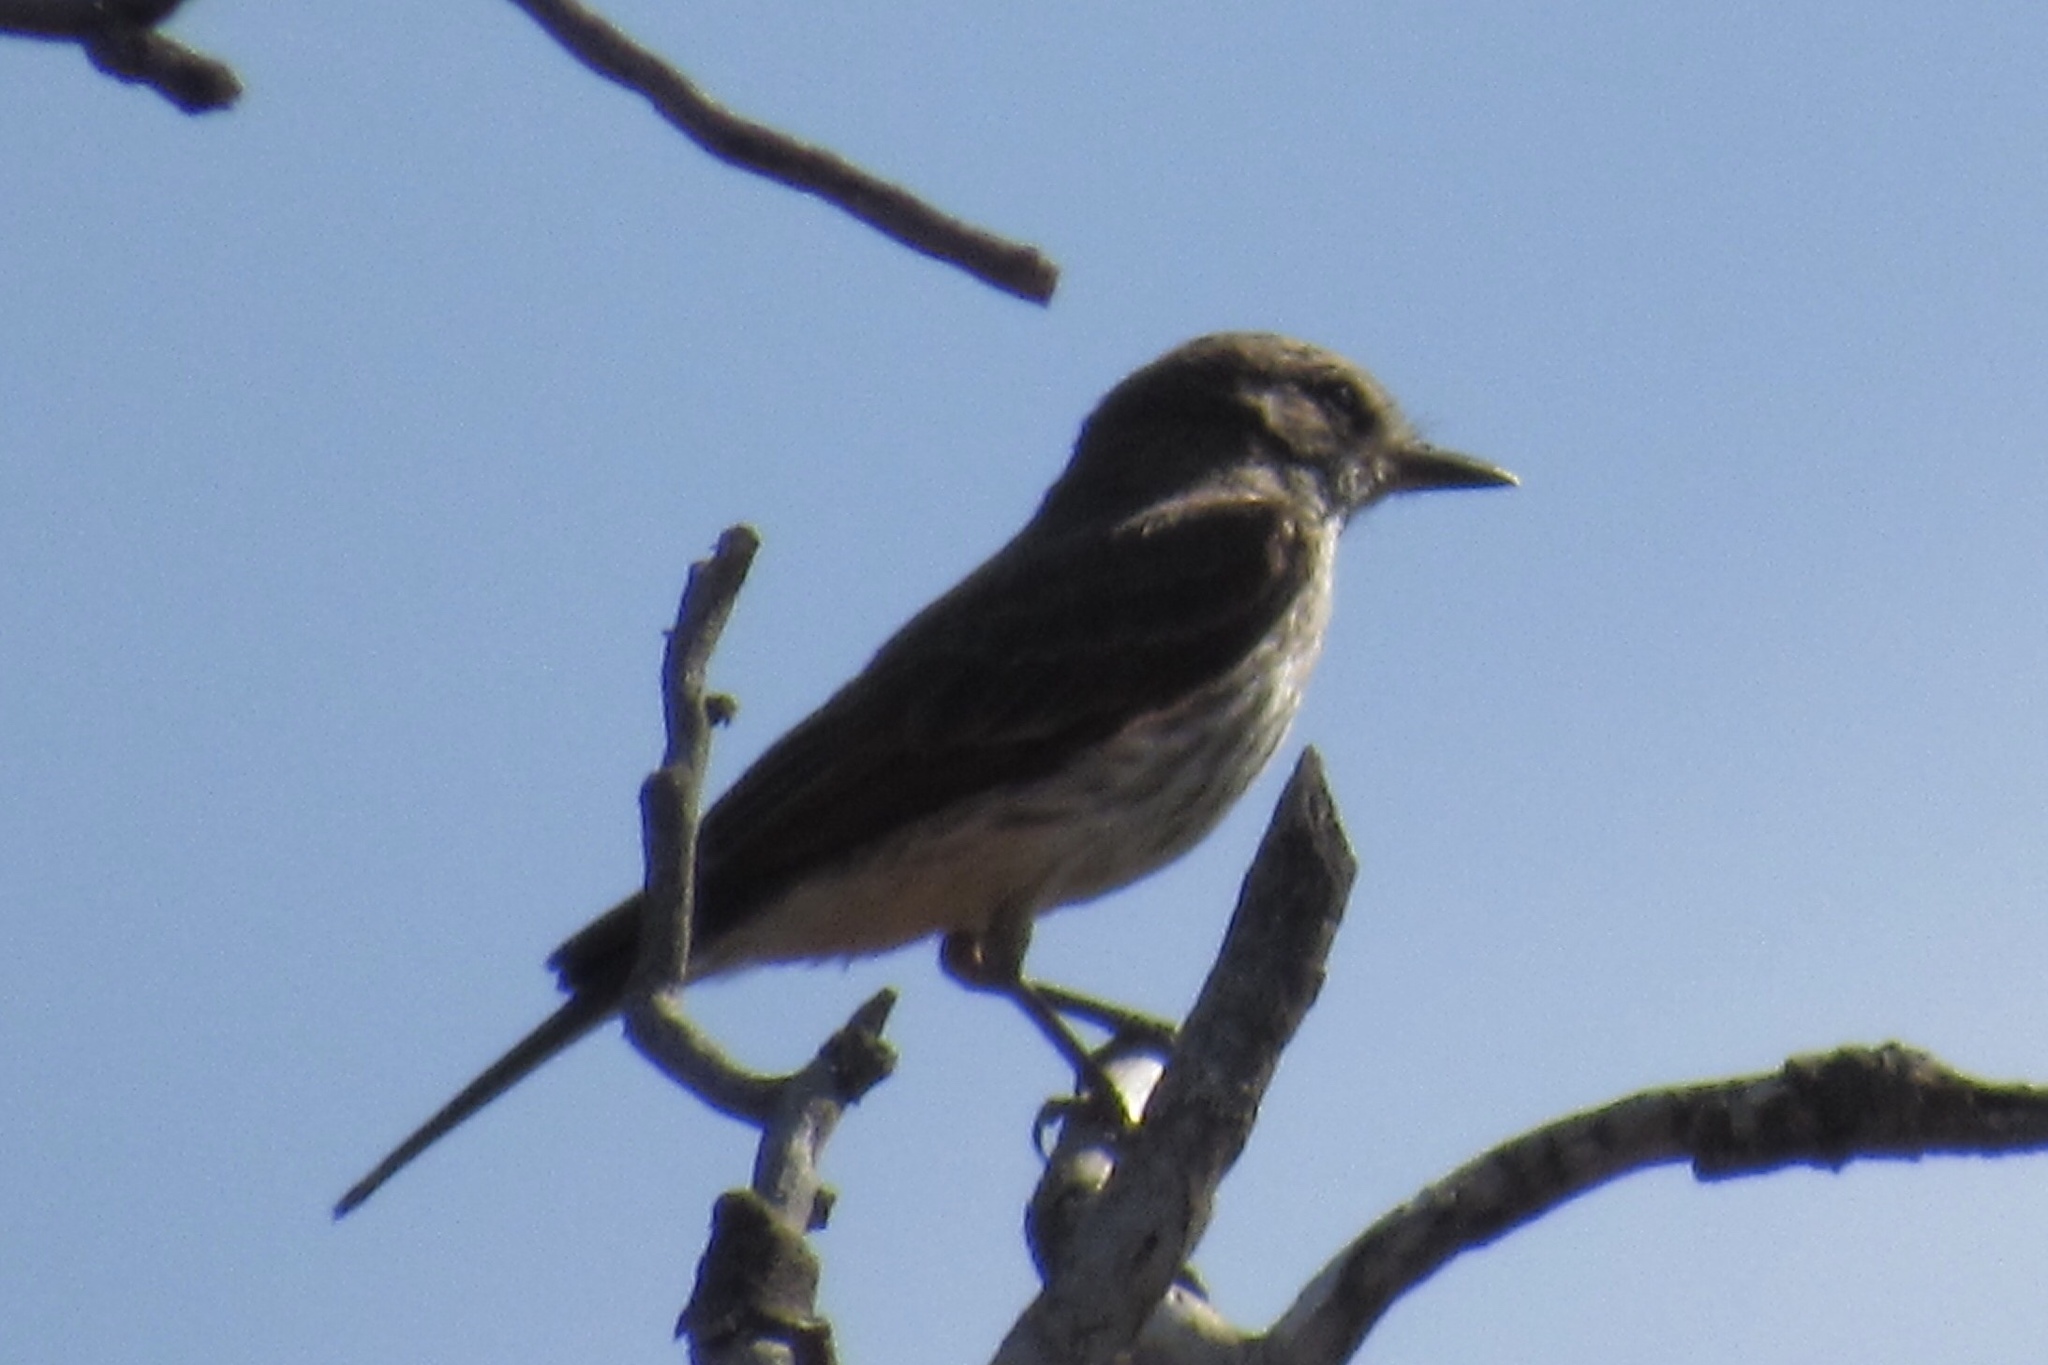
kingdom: Animalia
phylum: Chordata
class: Aves
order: Passeriformes
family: Tyrannidae
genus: Pyrocephalus
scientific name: Pyrocephalus rubinus
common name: Vermilion flycatcher
